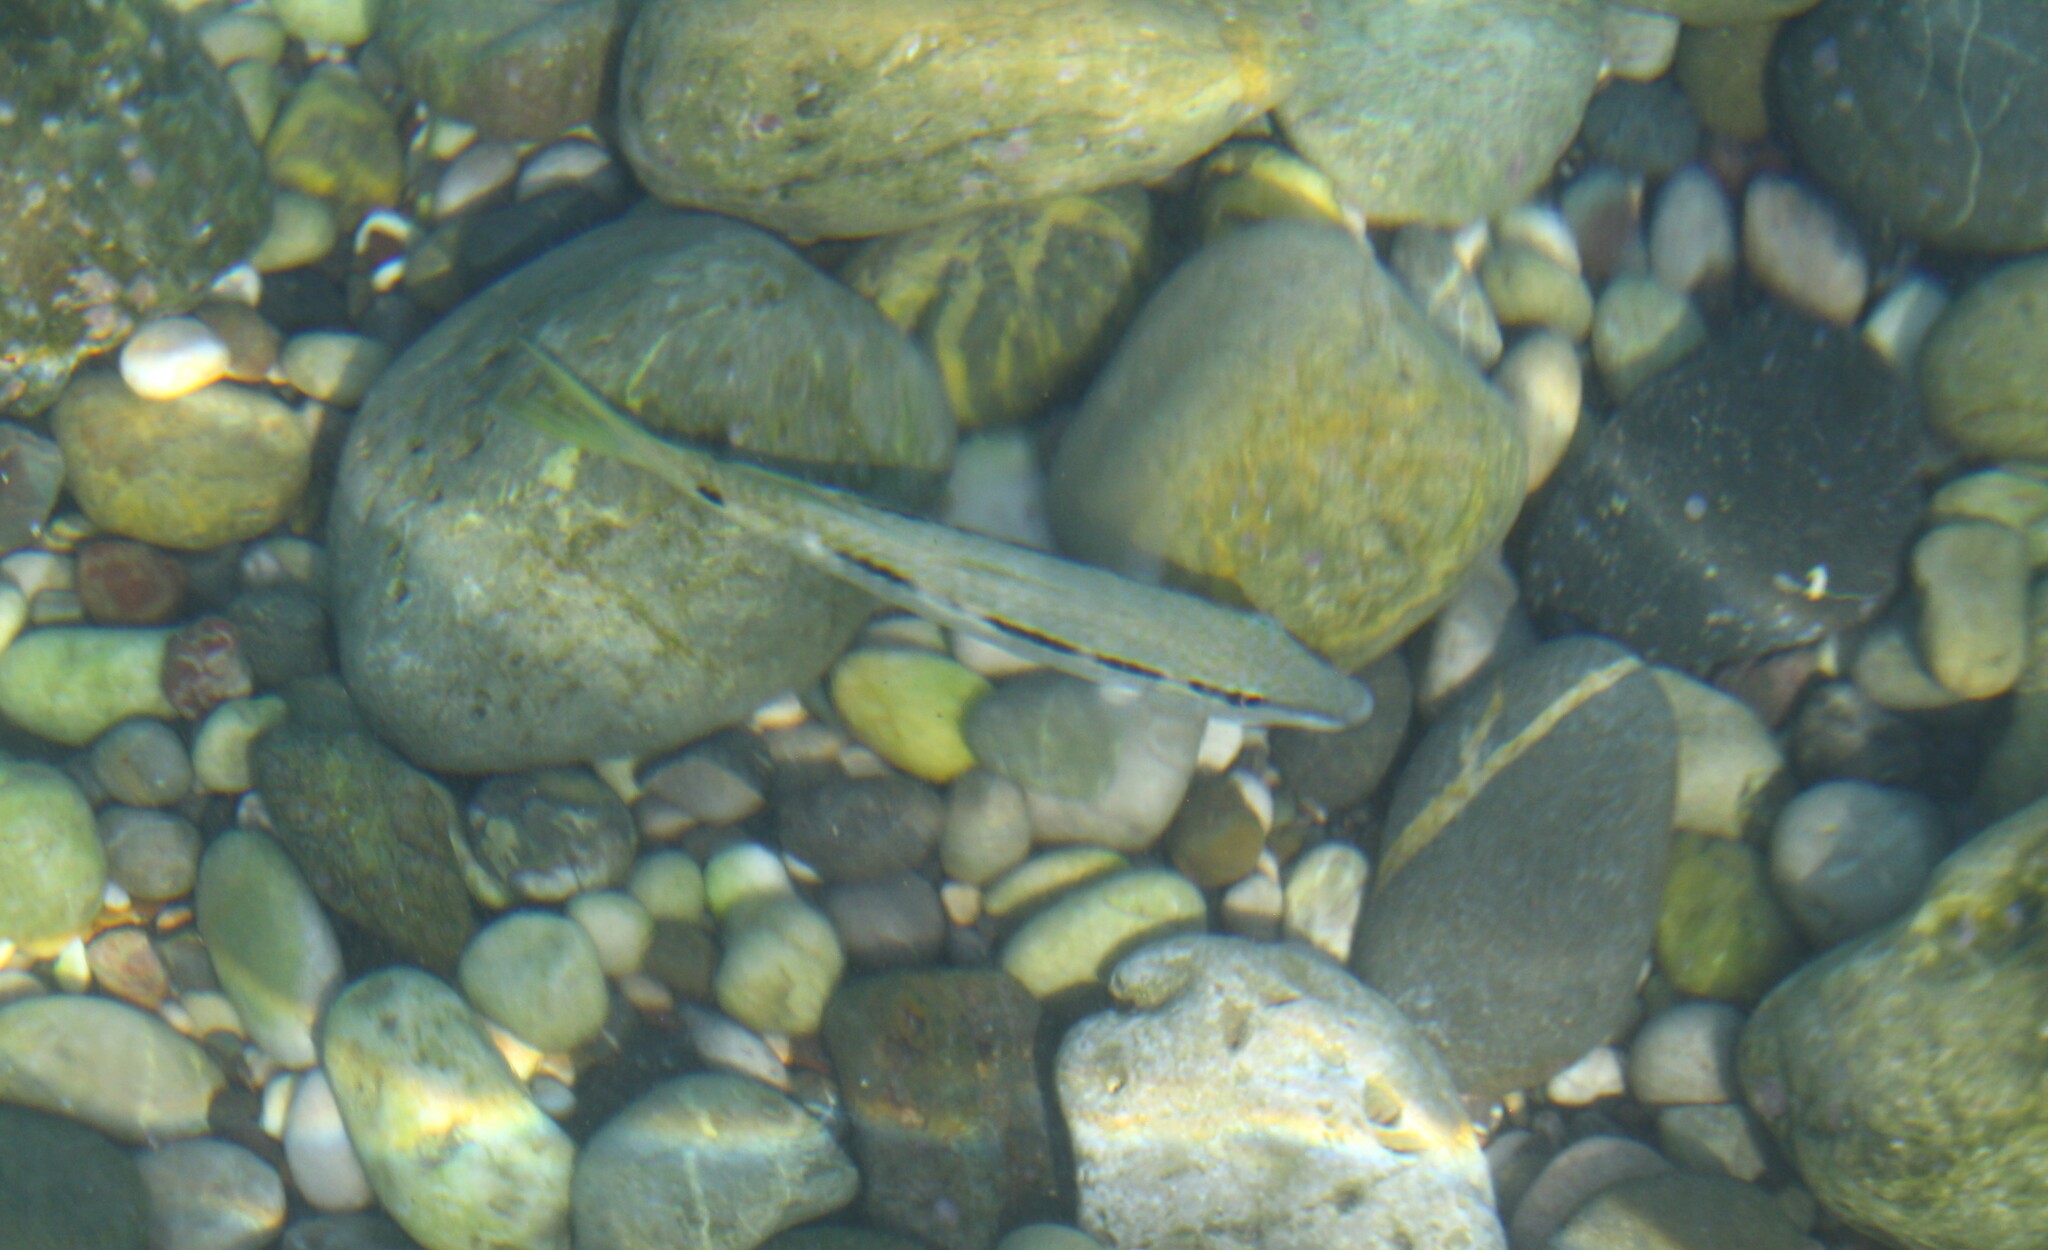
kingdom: Animalia
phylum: Chordata
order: Perciformes
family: Mullidae
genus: Parupeneus
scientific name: Parupeneus forsskali
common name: Red sea goatfish
